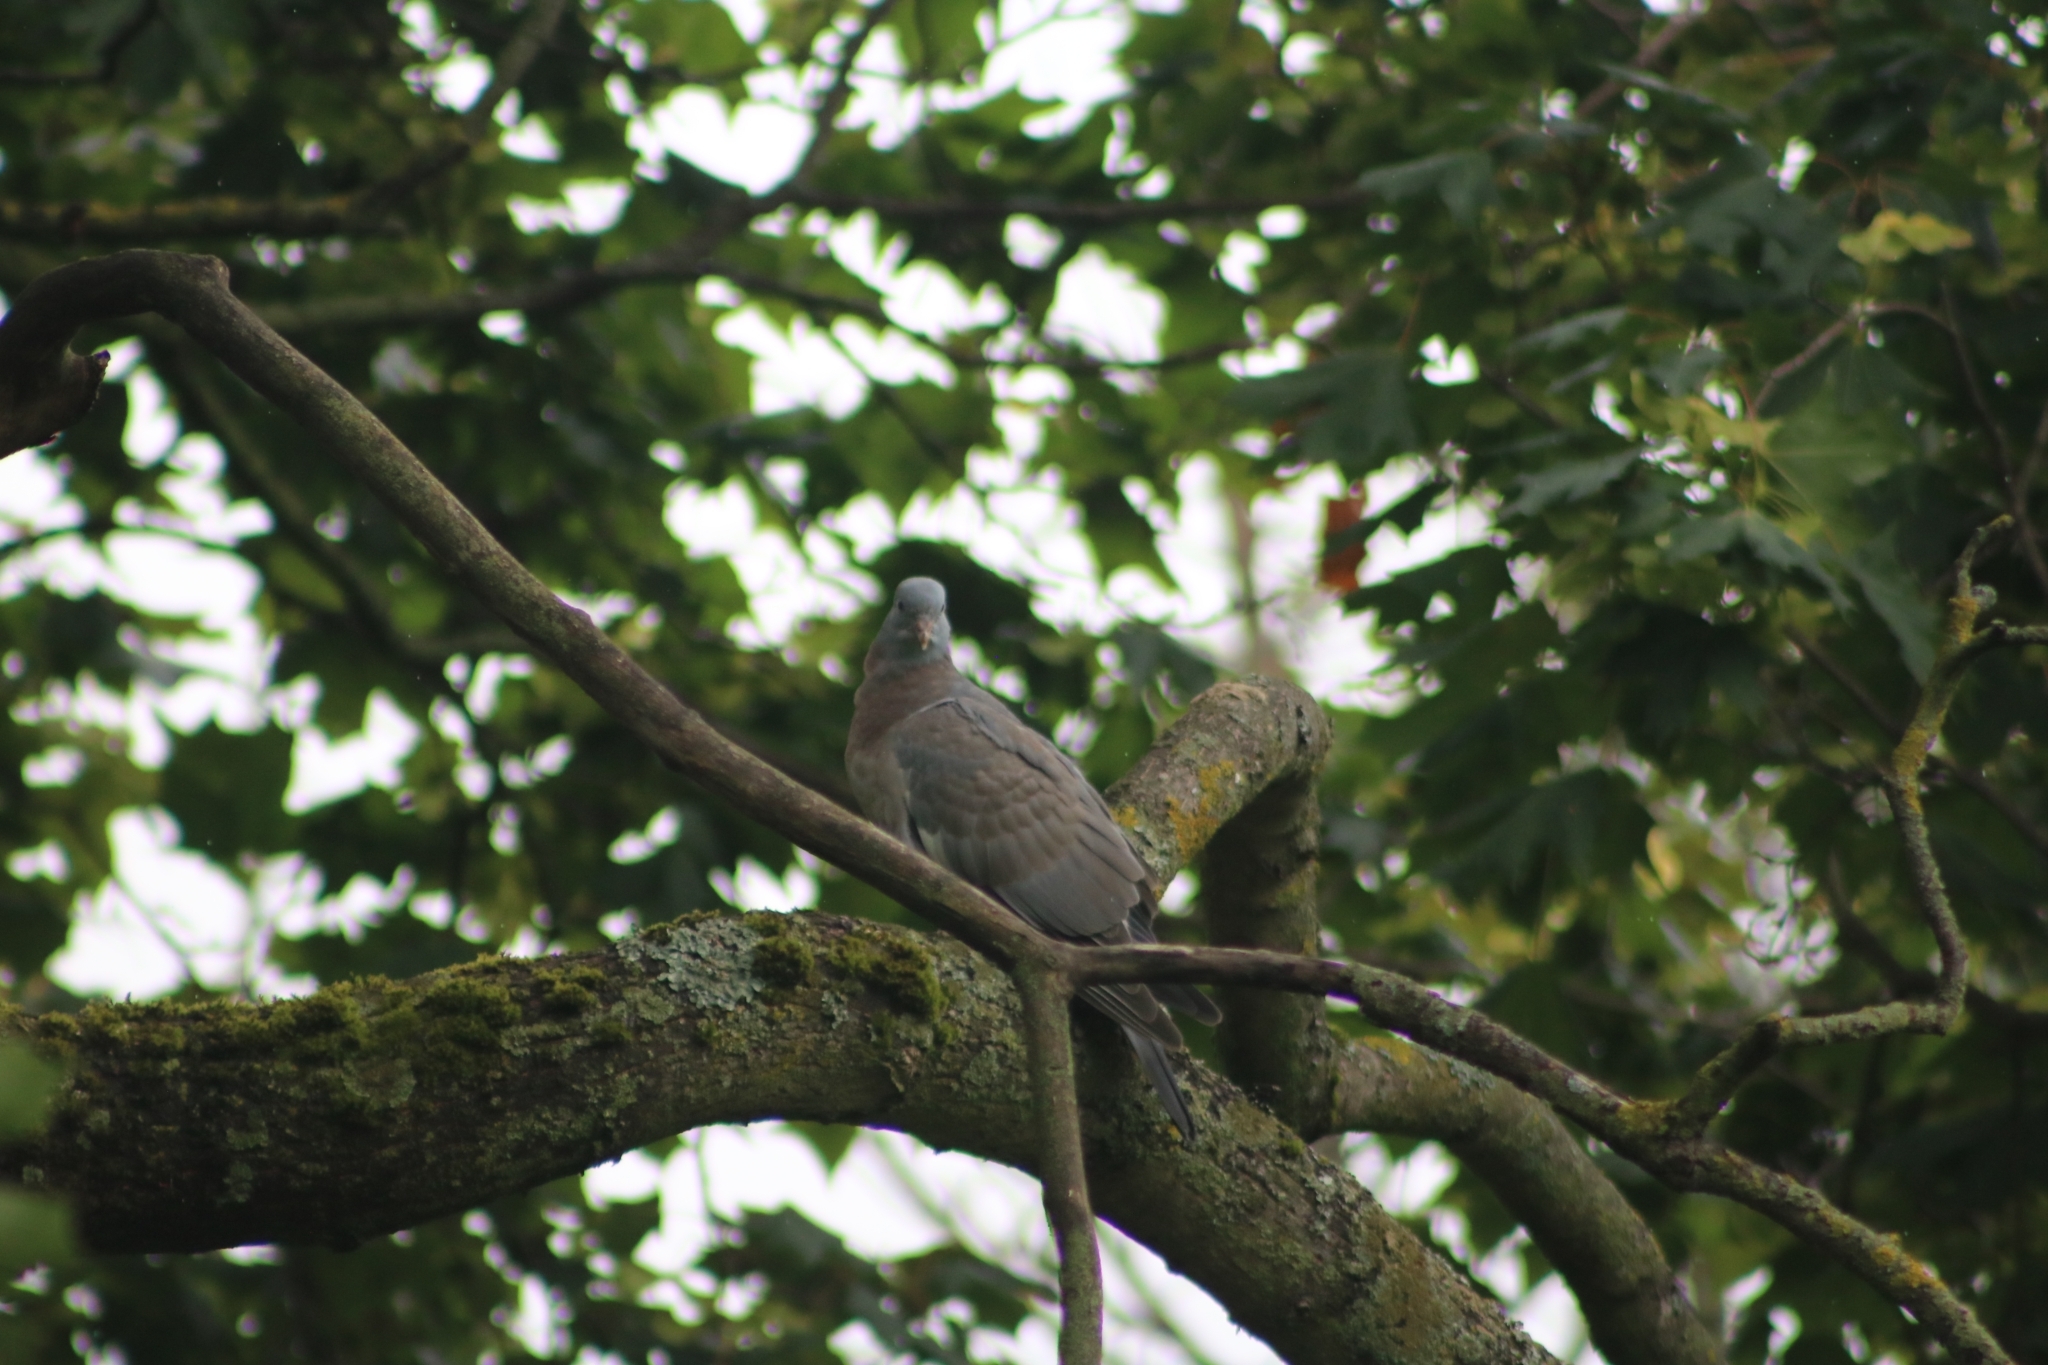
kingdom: Animalia
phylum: Chordata
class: Aves
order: Columbiformes
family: Columbidae
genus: Columba
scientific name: Columba palumbus
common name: Common wood pigeon
